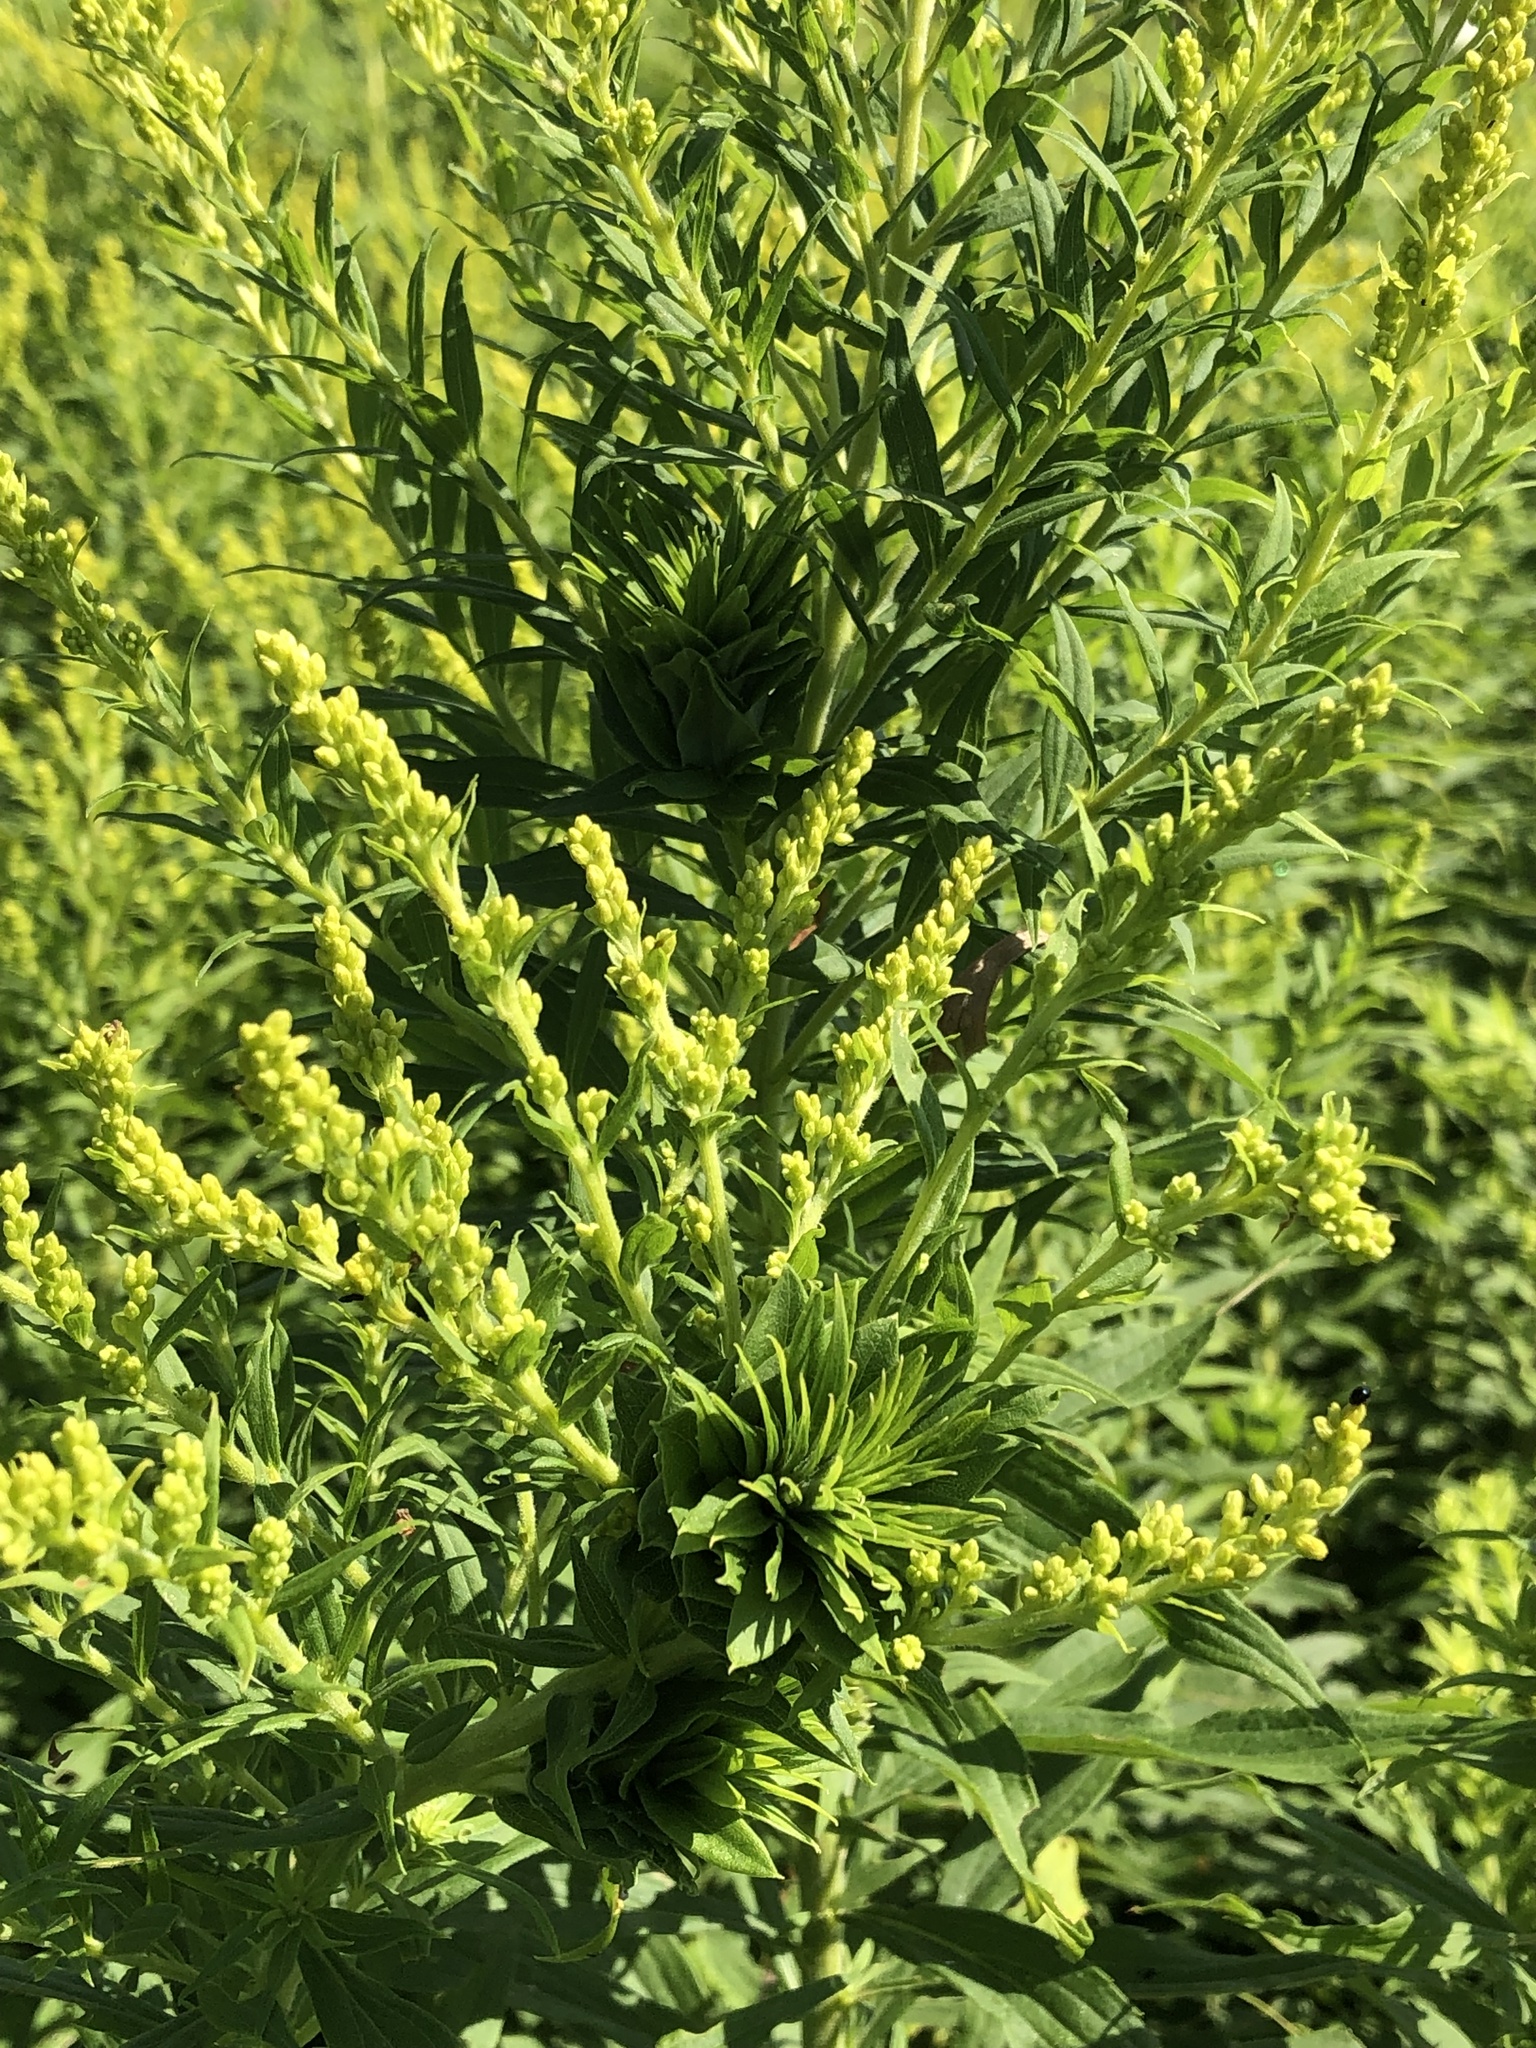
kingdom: Animalia
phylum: Arthropoda
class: Insecta
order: Diptera
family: Cecidomyiidae
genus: Rhopalomyia
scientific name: Rhopalomyia solidaginis
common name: Goldenrod bunch gall midge
